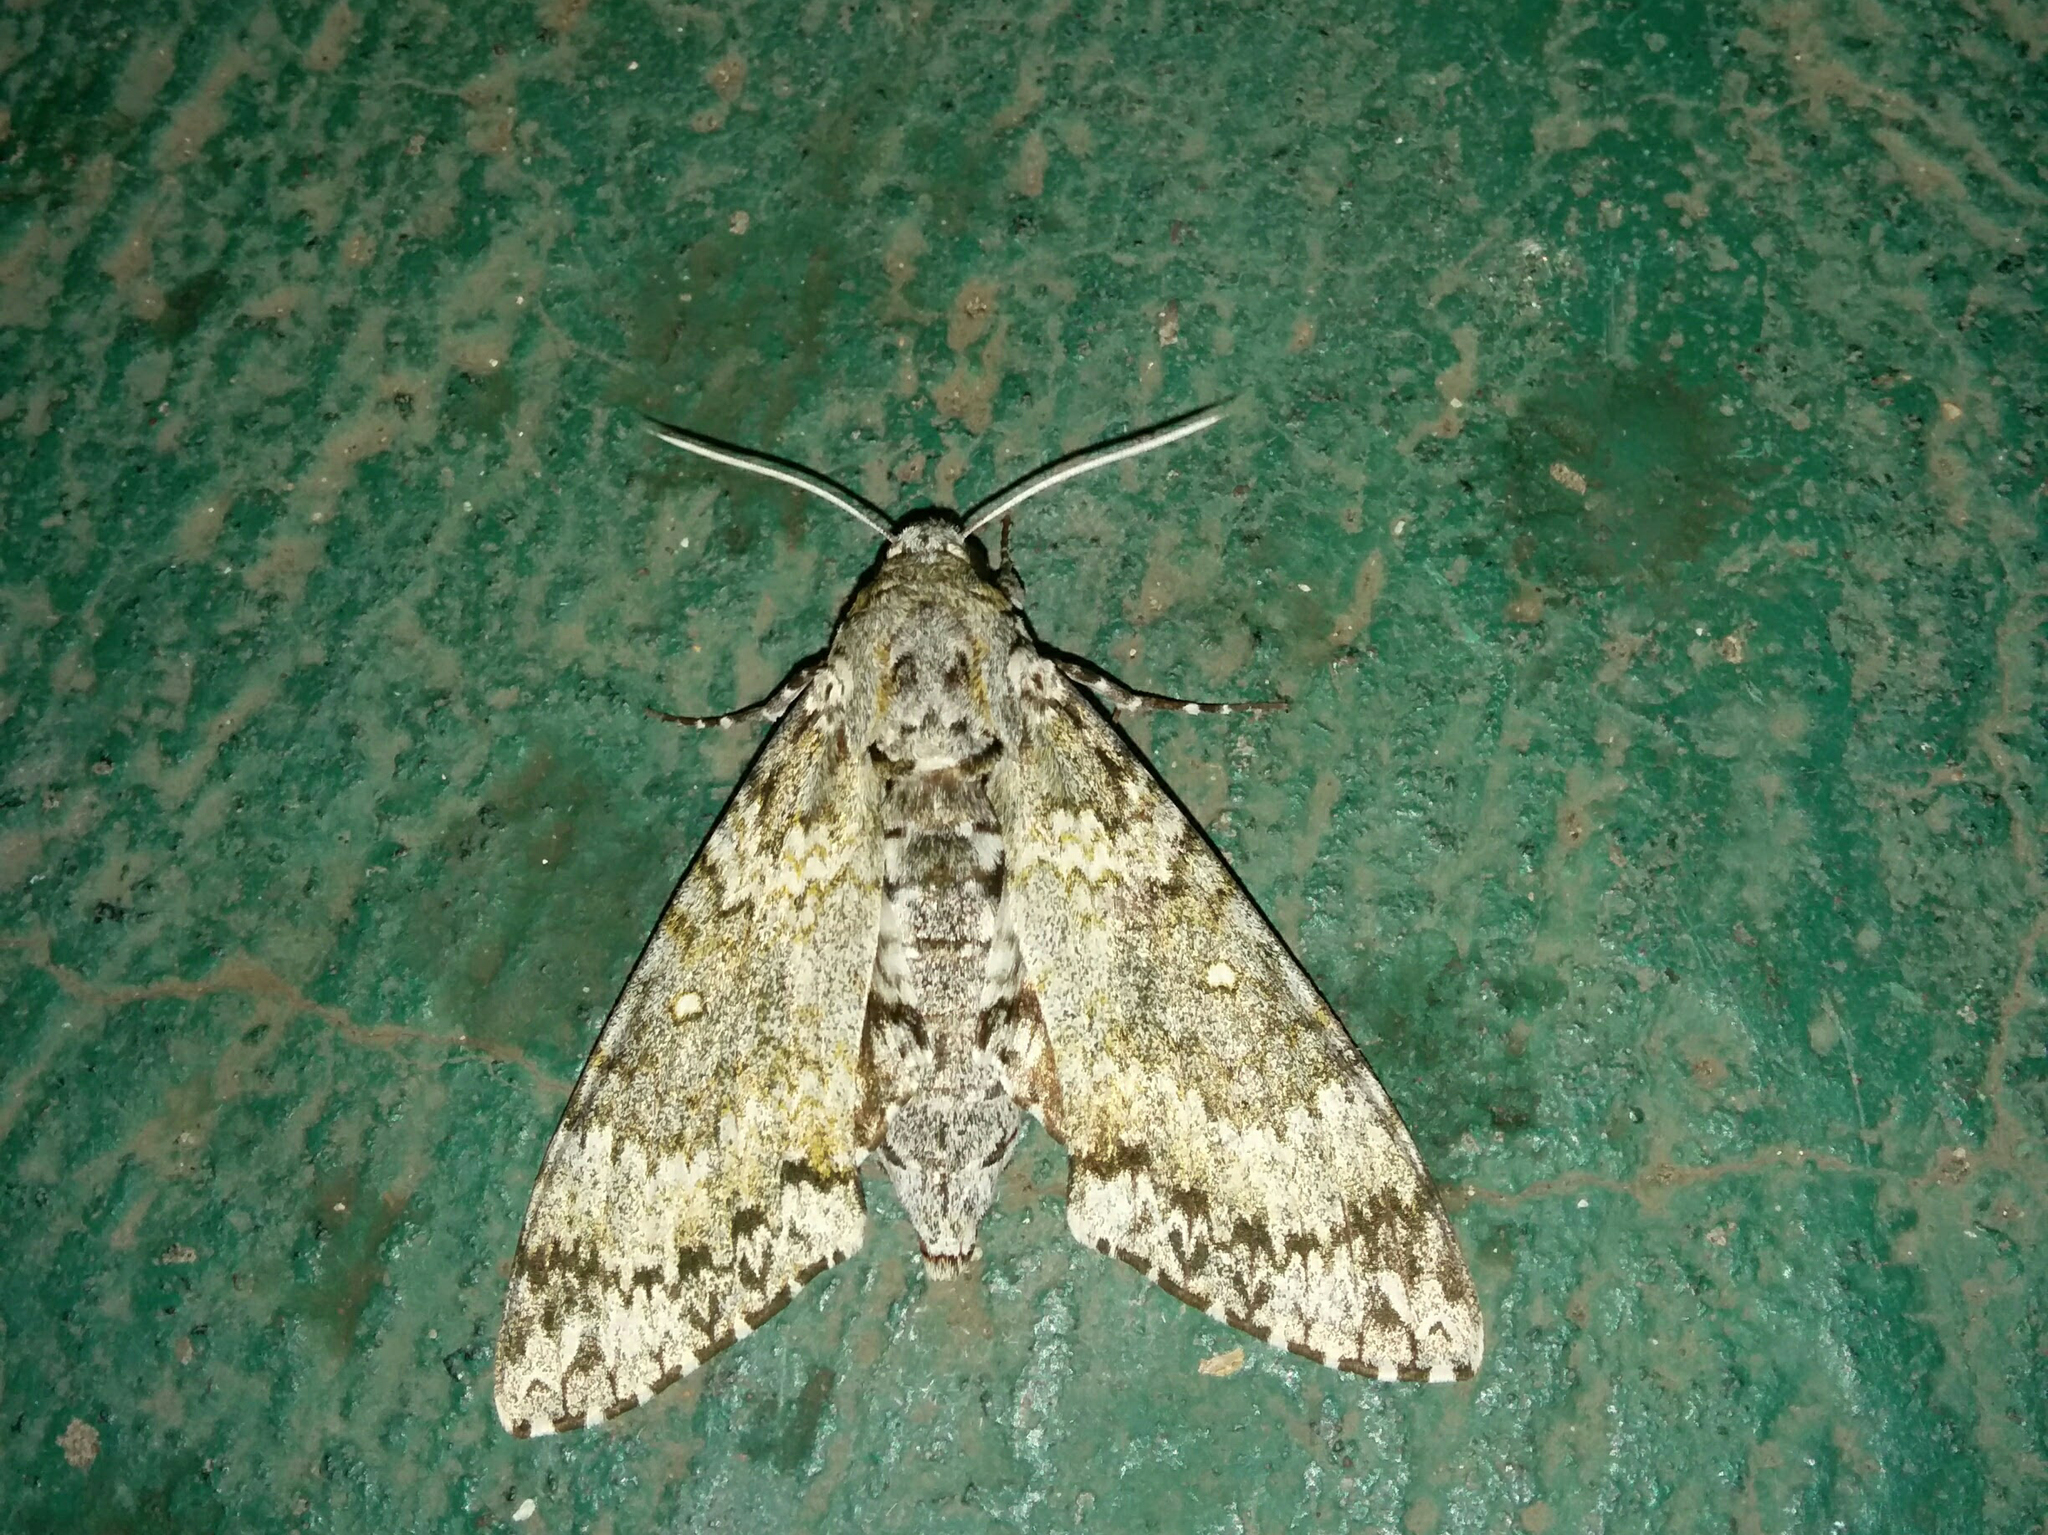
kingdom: Animalia
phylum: Arthropoda
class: Insecta
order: Lepidoptera
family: Sphingidae
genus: Manduca
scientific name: Manduca rustica
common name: Rustic sphinx
